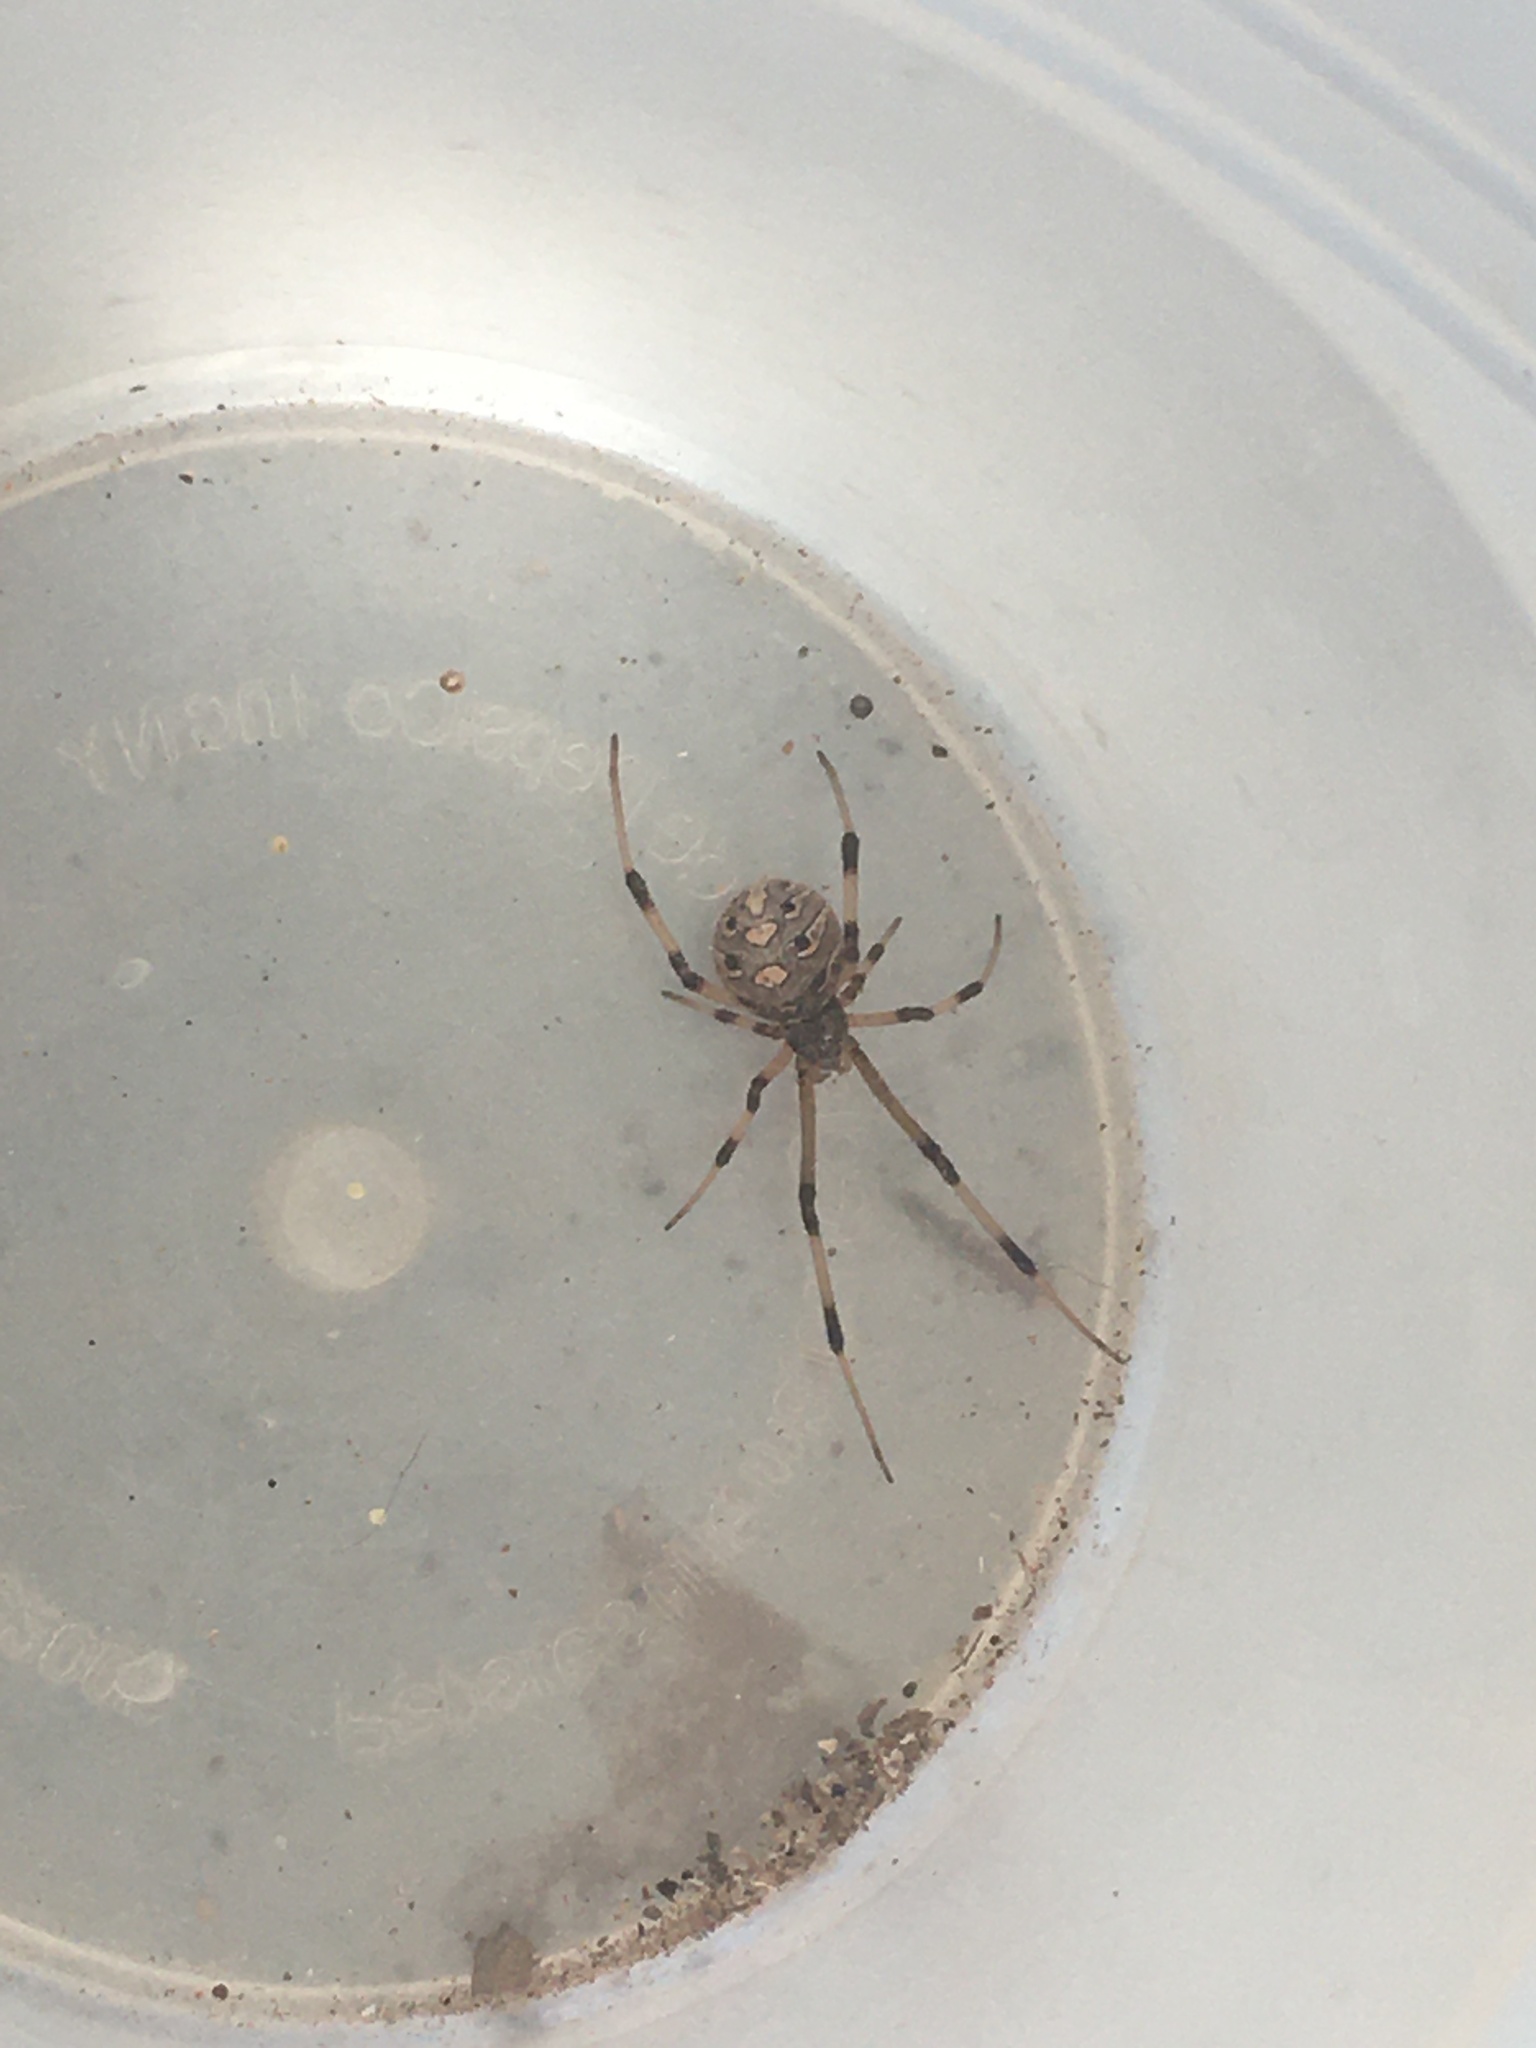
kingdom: Animalia
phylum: Arthropoda
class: Arachnida
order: Araneae
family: Theridiidae
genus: Latrodectus
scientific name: Latrodectus geometricus
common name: Brown widow spider
